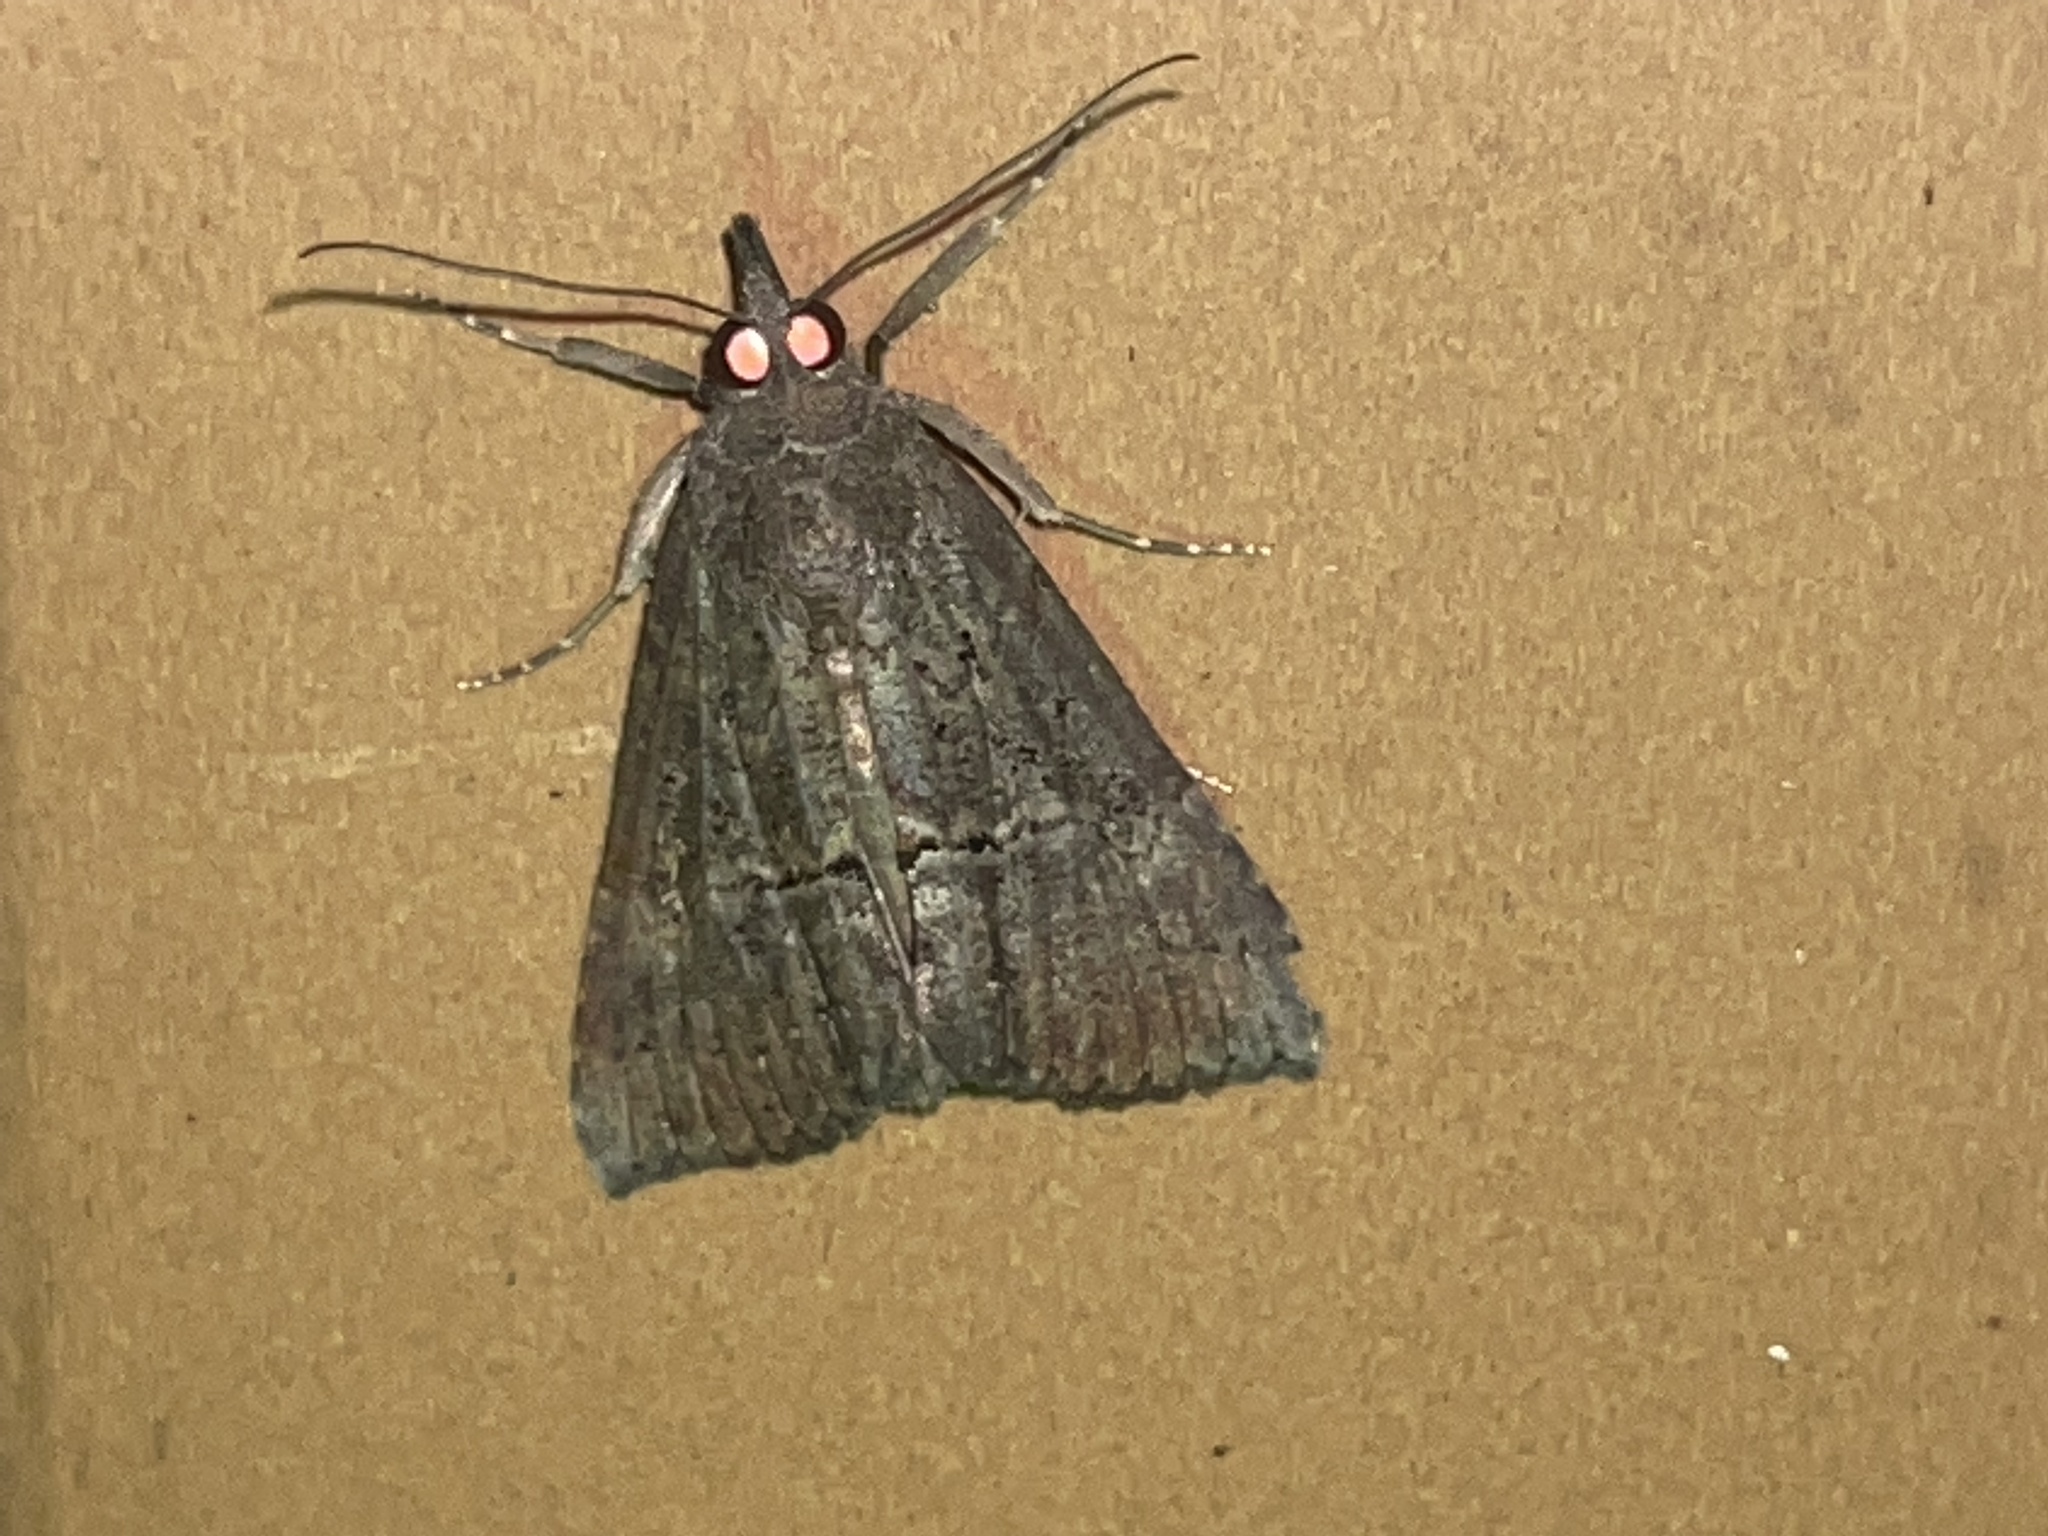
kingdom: Animalia
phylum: Arthropoda
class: Insecta
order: Lepidoptera
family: Erebidae
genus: Hypena
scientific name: Hypena scabra
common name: Green cloverworm
